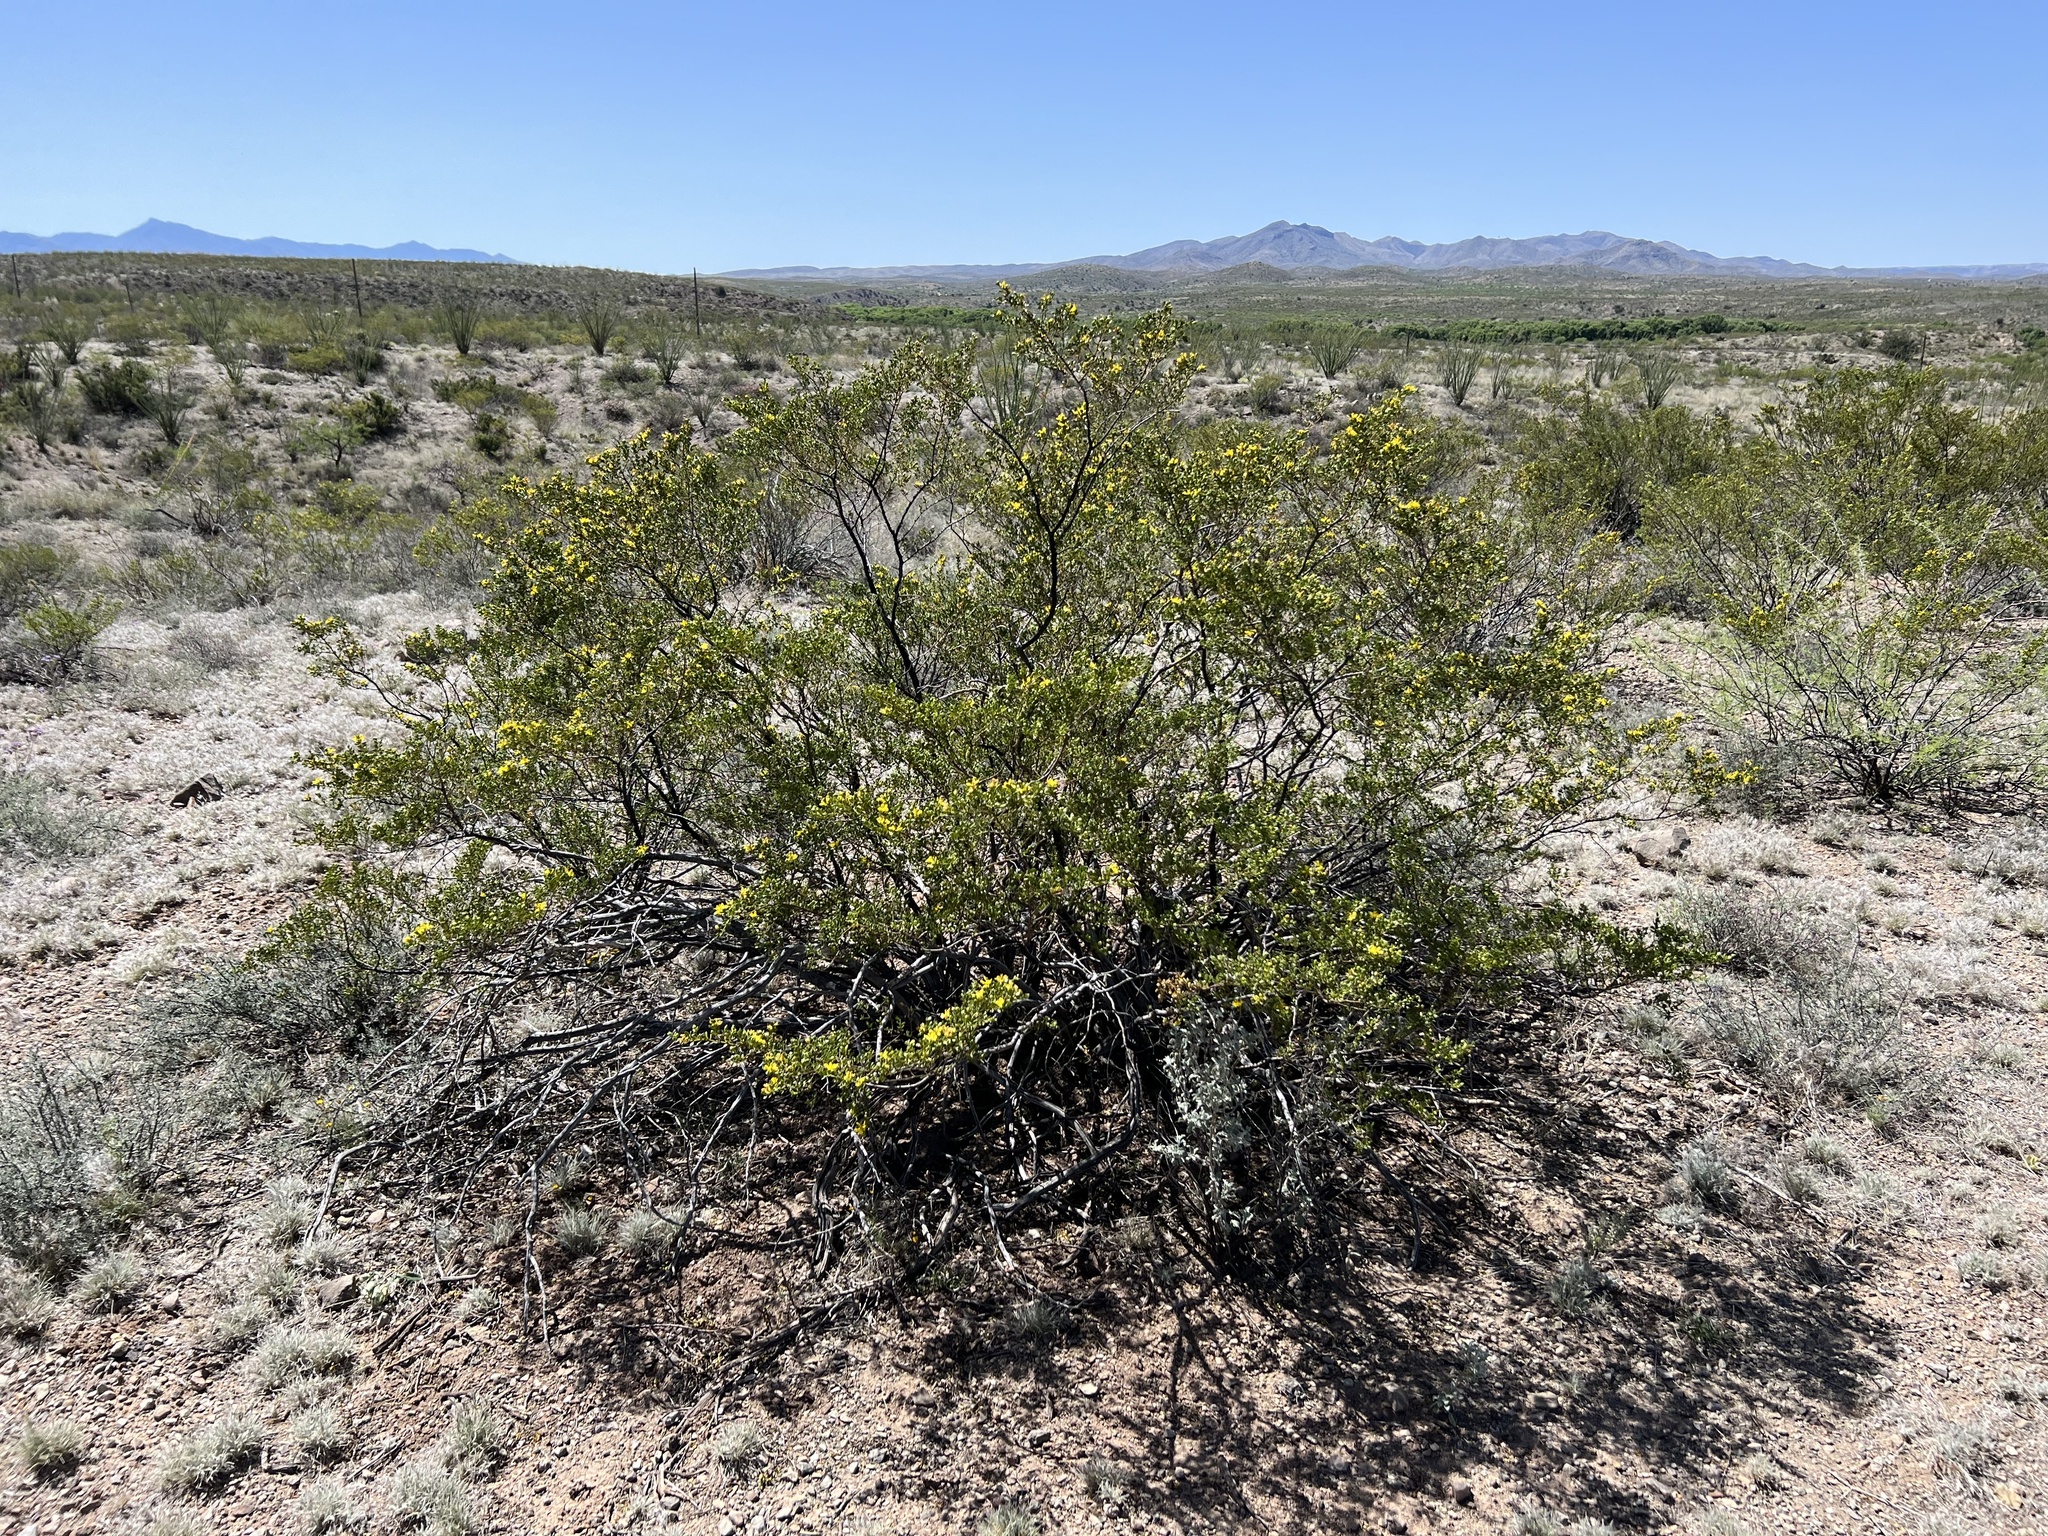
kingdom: Plantae
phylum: Tracheophyta
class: Magnoliopsida
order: Zygophyllales
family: Zygophyllaceae
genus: Larrea
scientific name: Larrea tridentata
